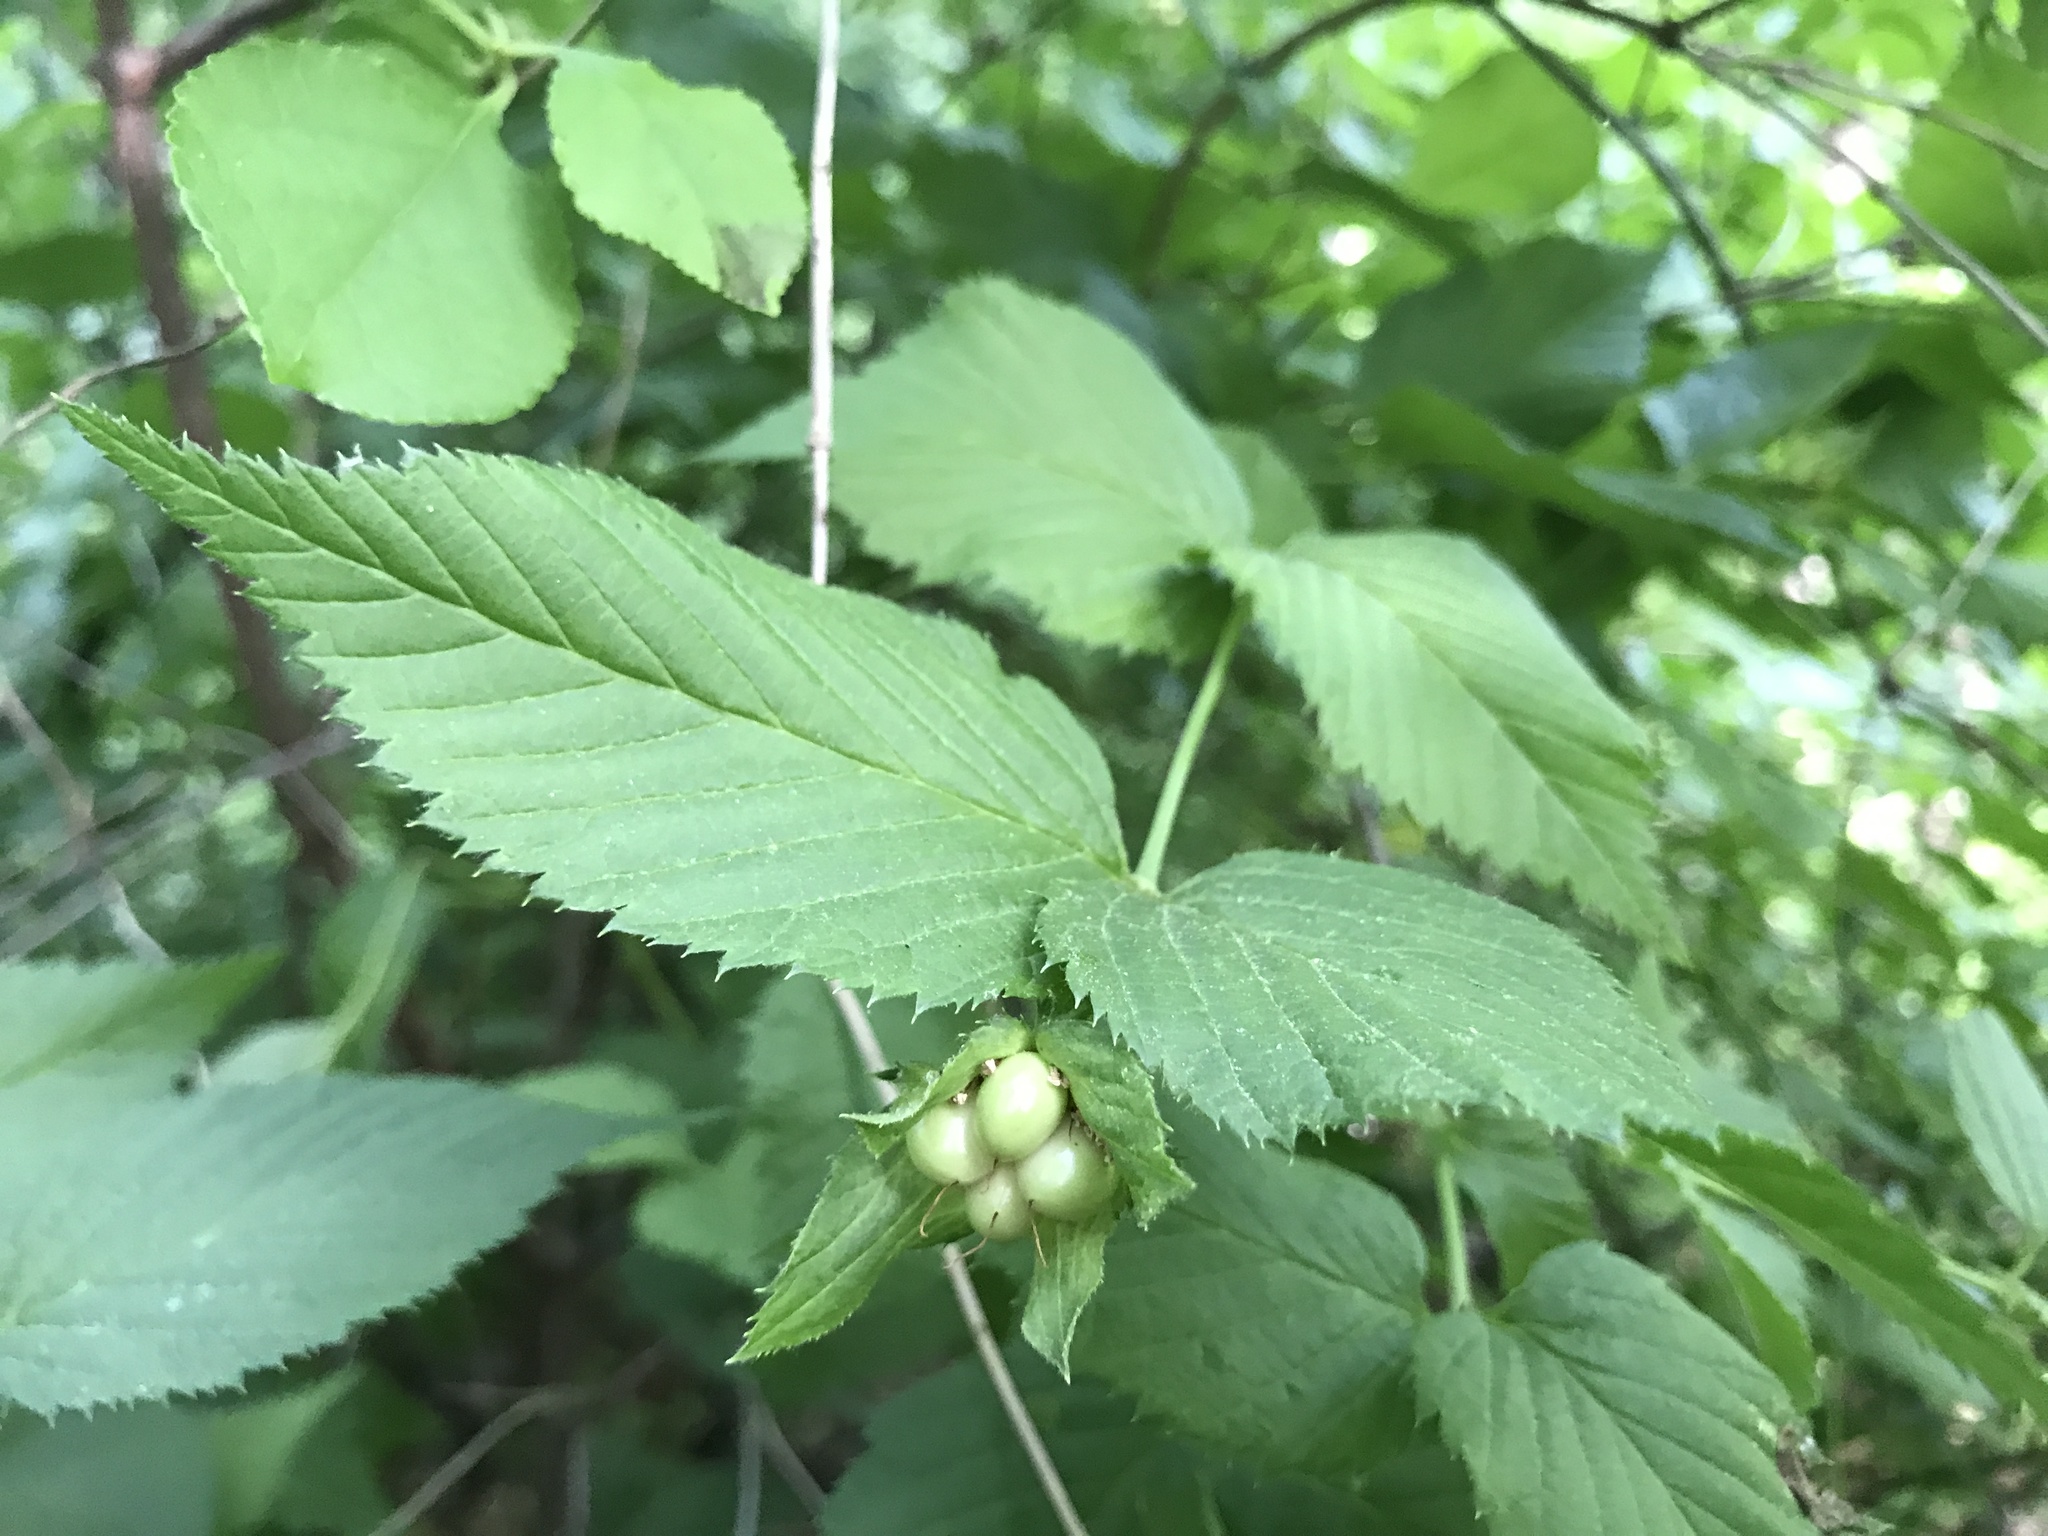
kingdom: Plantae
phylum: Tracheophyta
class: Magnoliopsida
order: Rosales
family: Rosaceae
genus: Rhodotypos
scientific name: Rhodotypos scandens
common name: Jetbead
